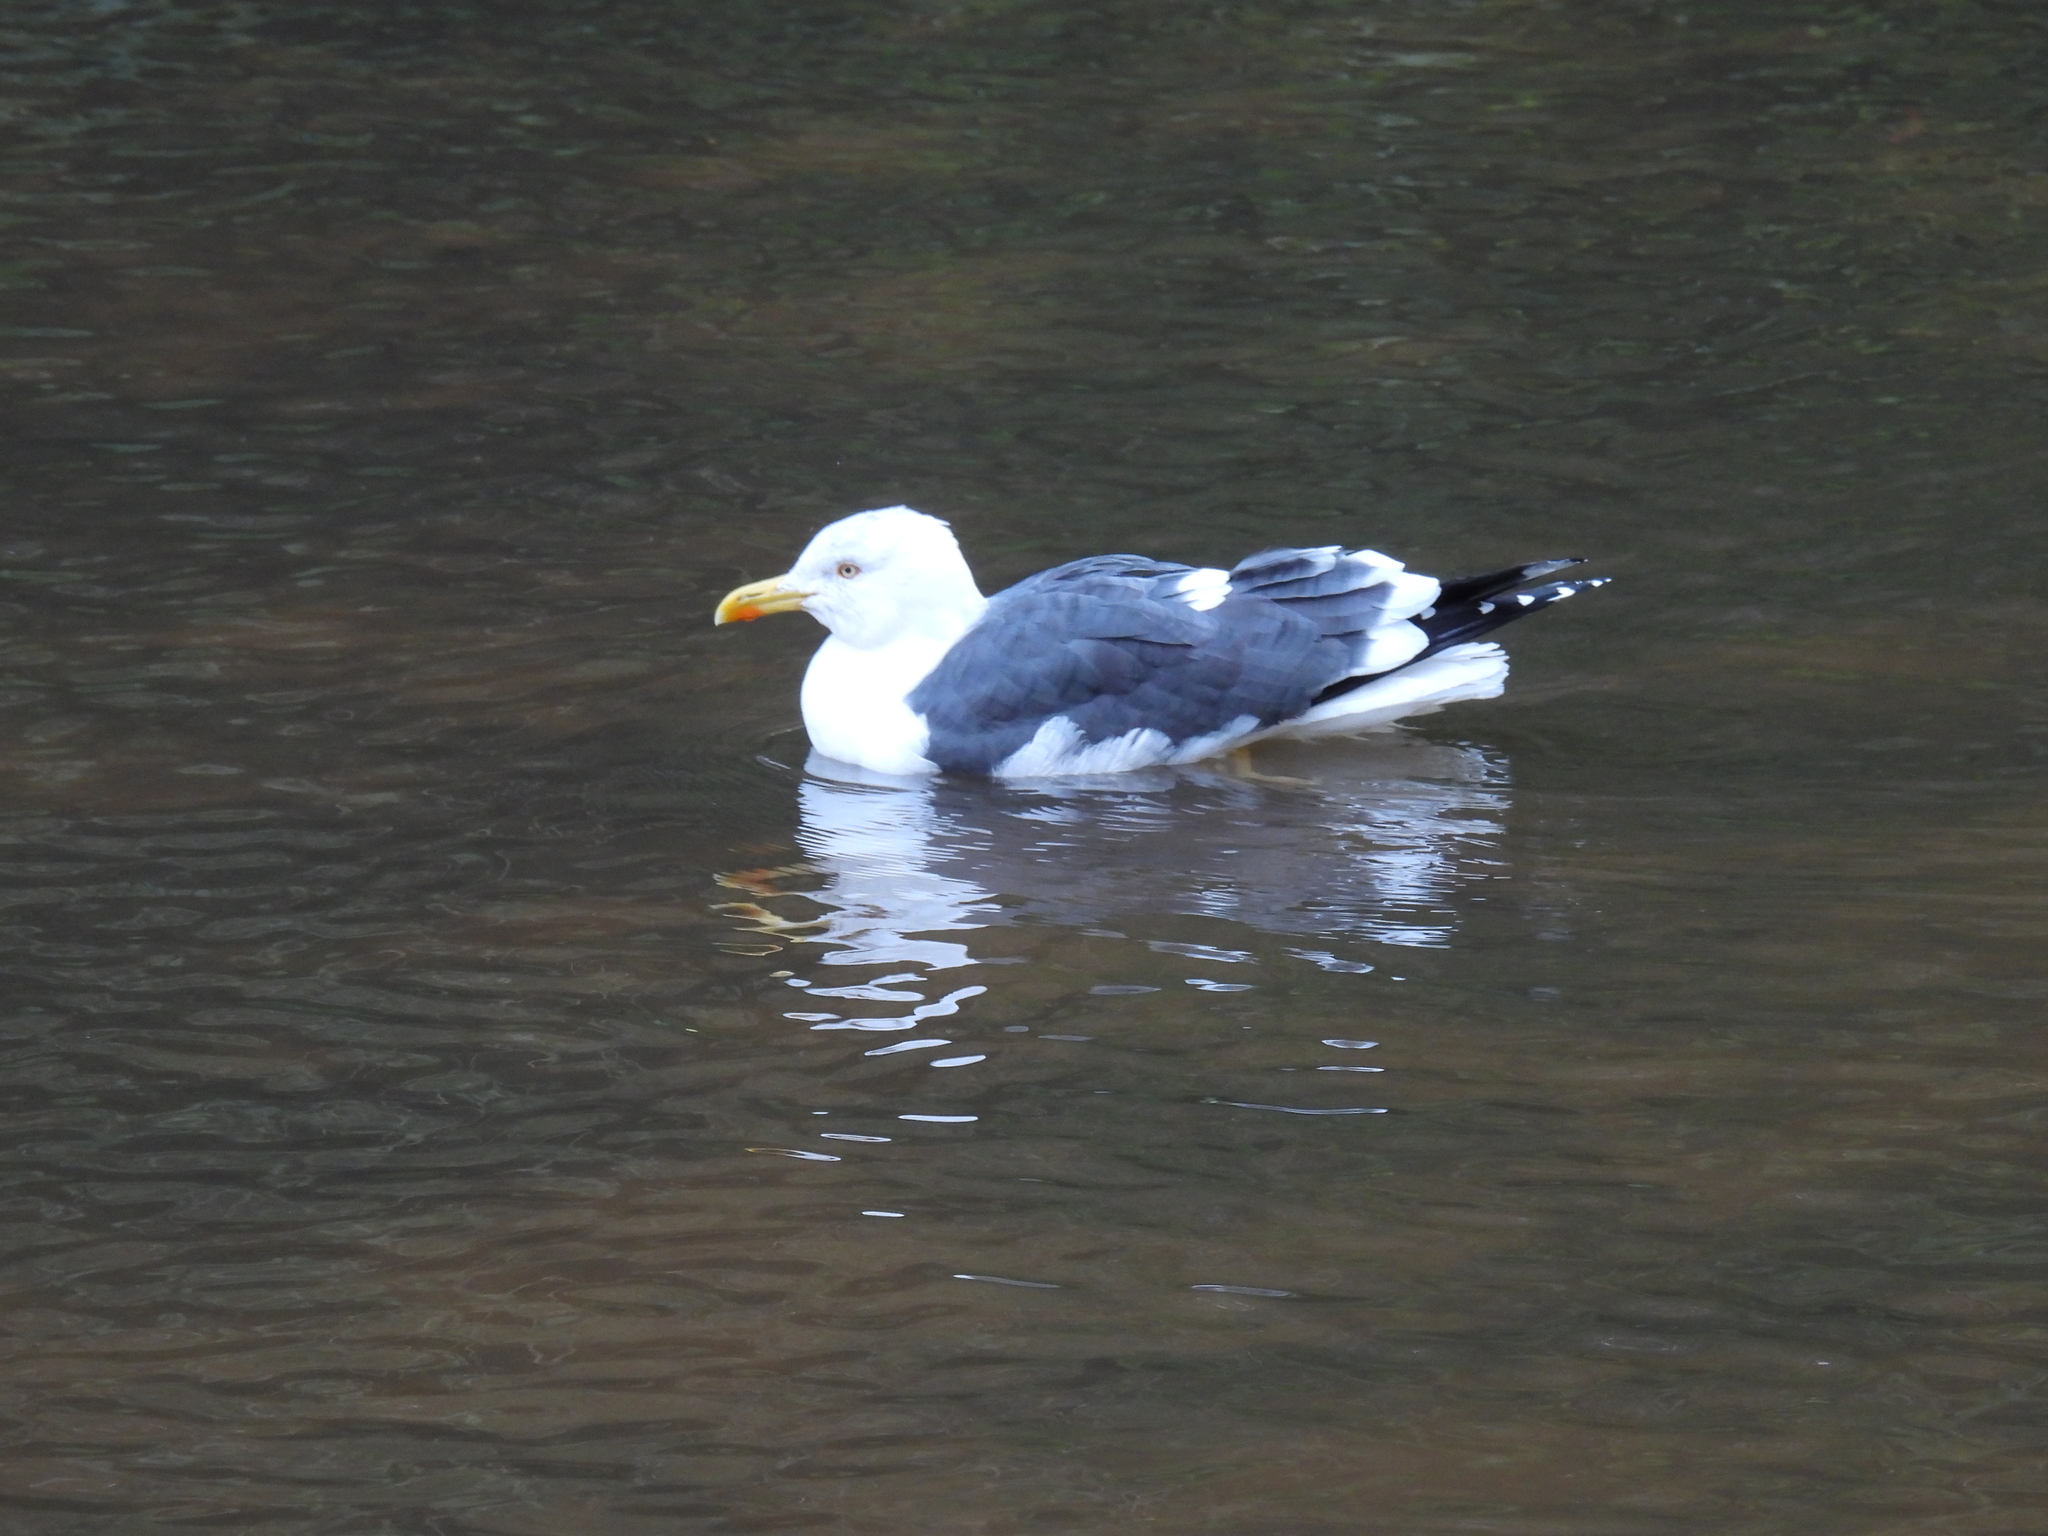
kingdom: Animalia
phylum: Chordata
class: Aves
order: Charadriiformes
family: Laridae
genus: Larus
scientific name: Larus fuscus
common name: Lesser black-backed gull
